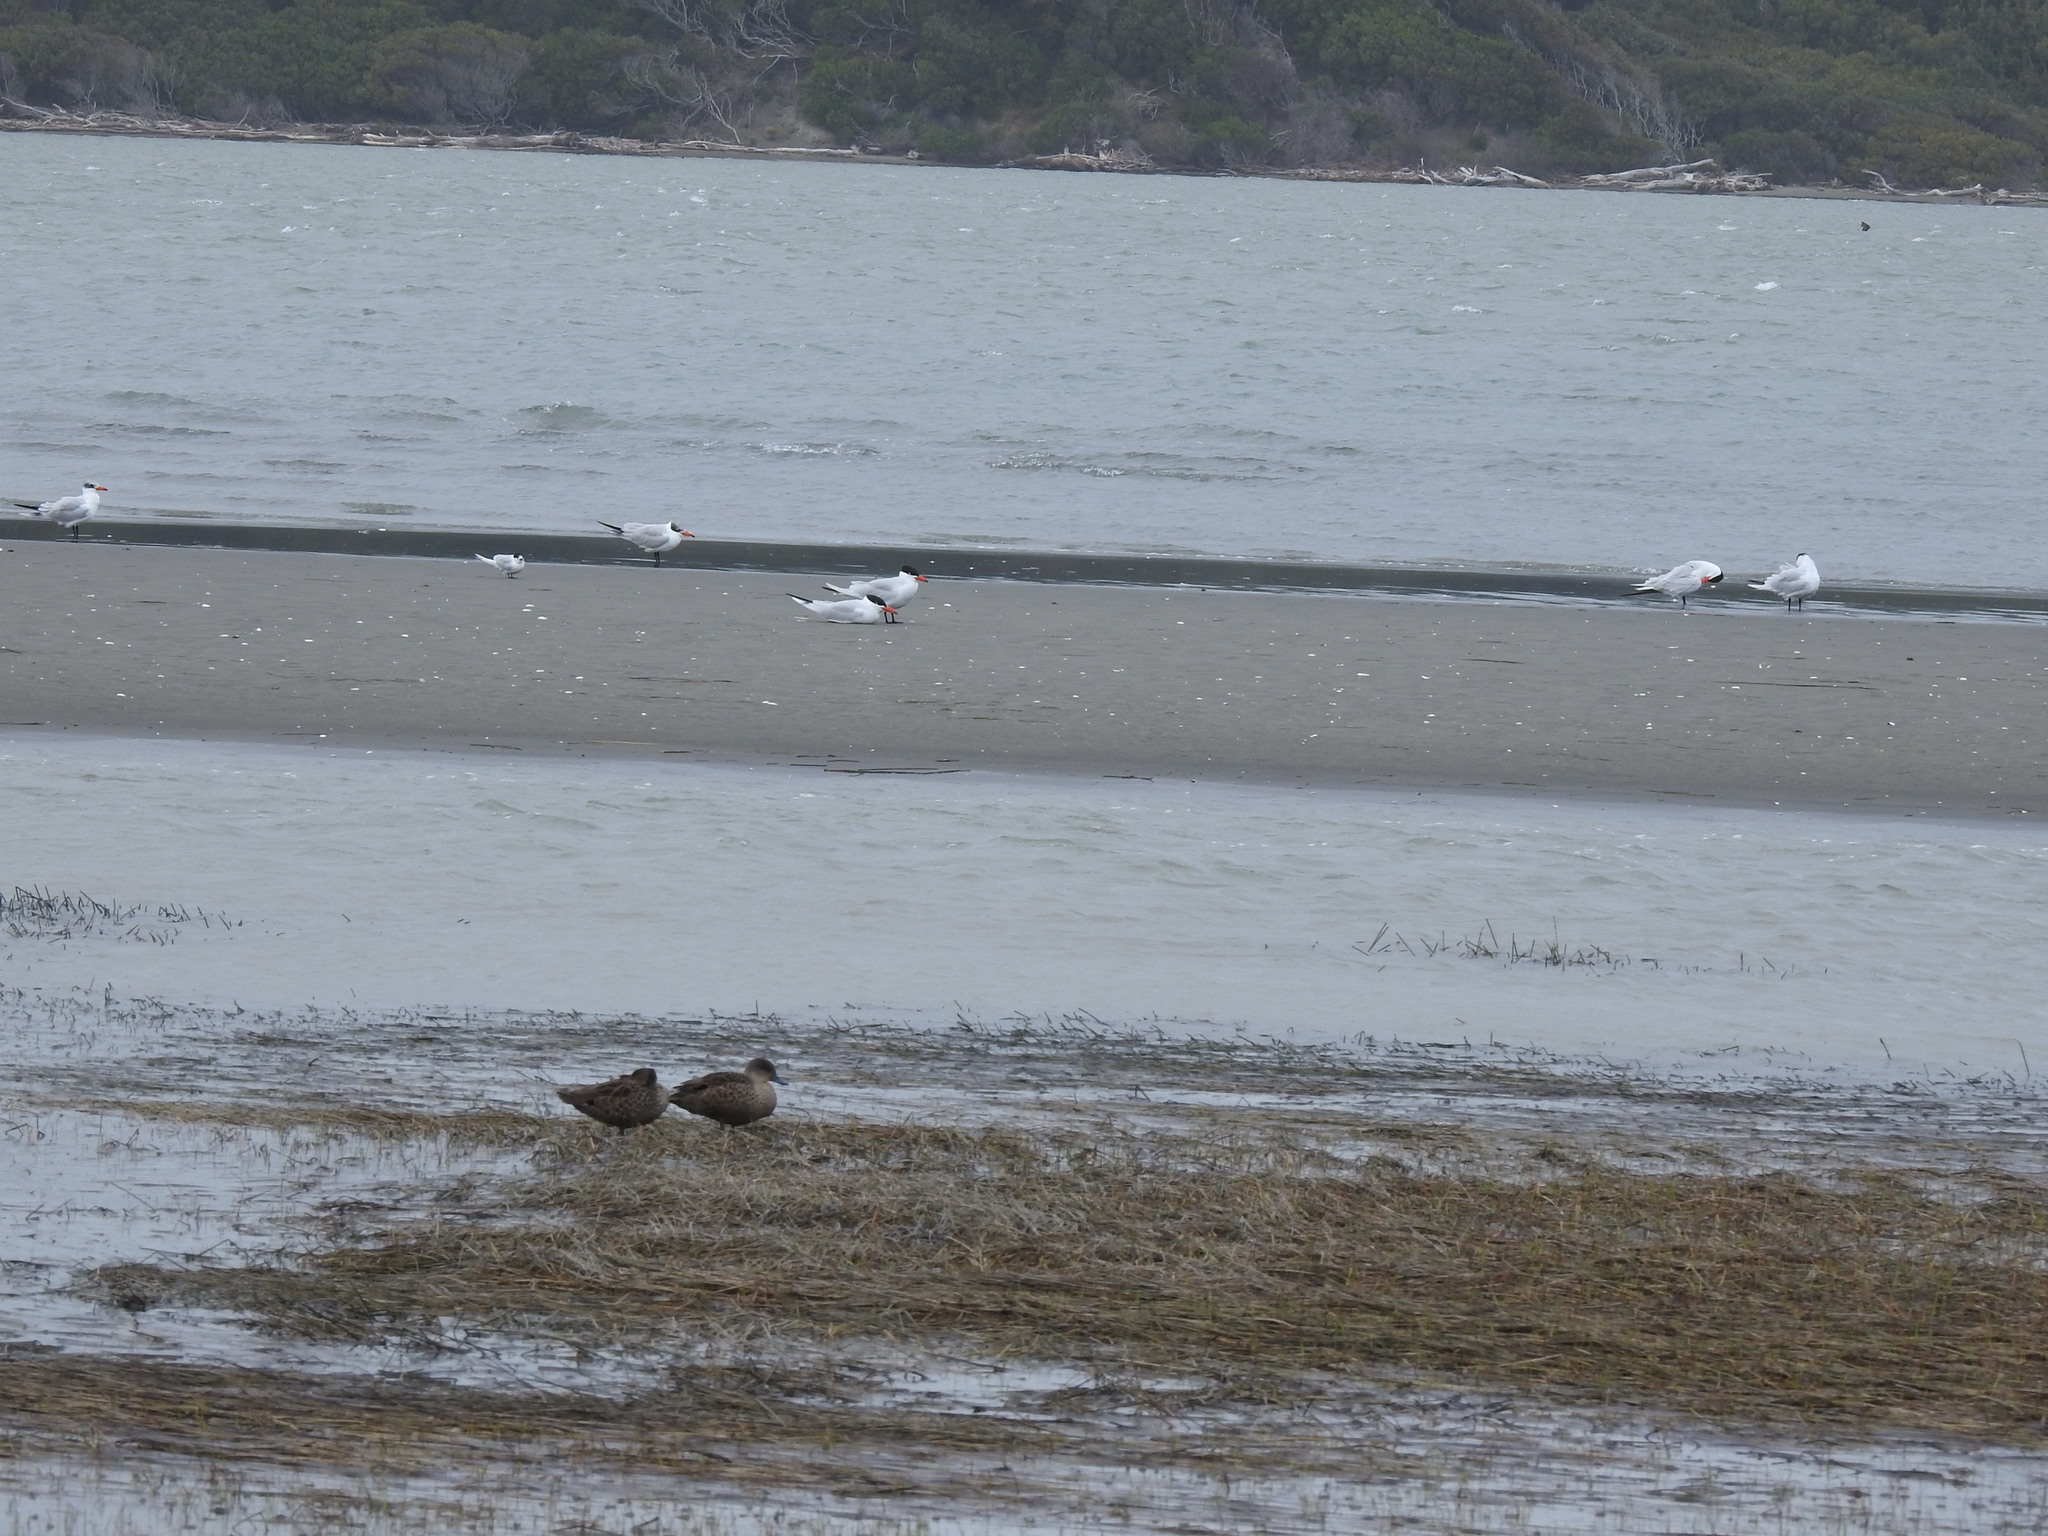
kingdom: Animalia
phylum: Chordata
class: Aves
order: Charadriiformes
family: Laridae
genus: Hydroprogne
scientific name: Hydroprogne caspia
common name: Caspian tern
